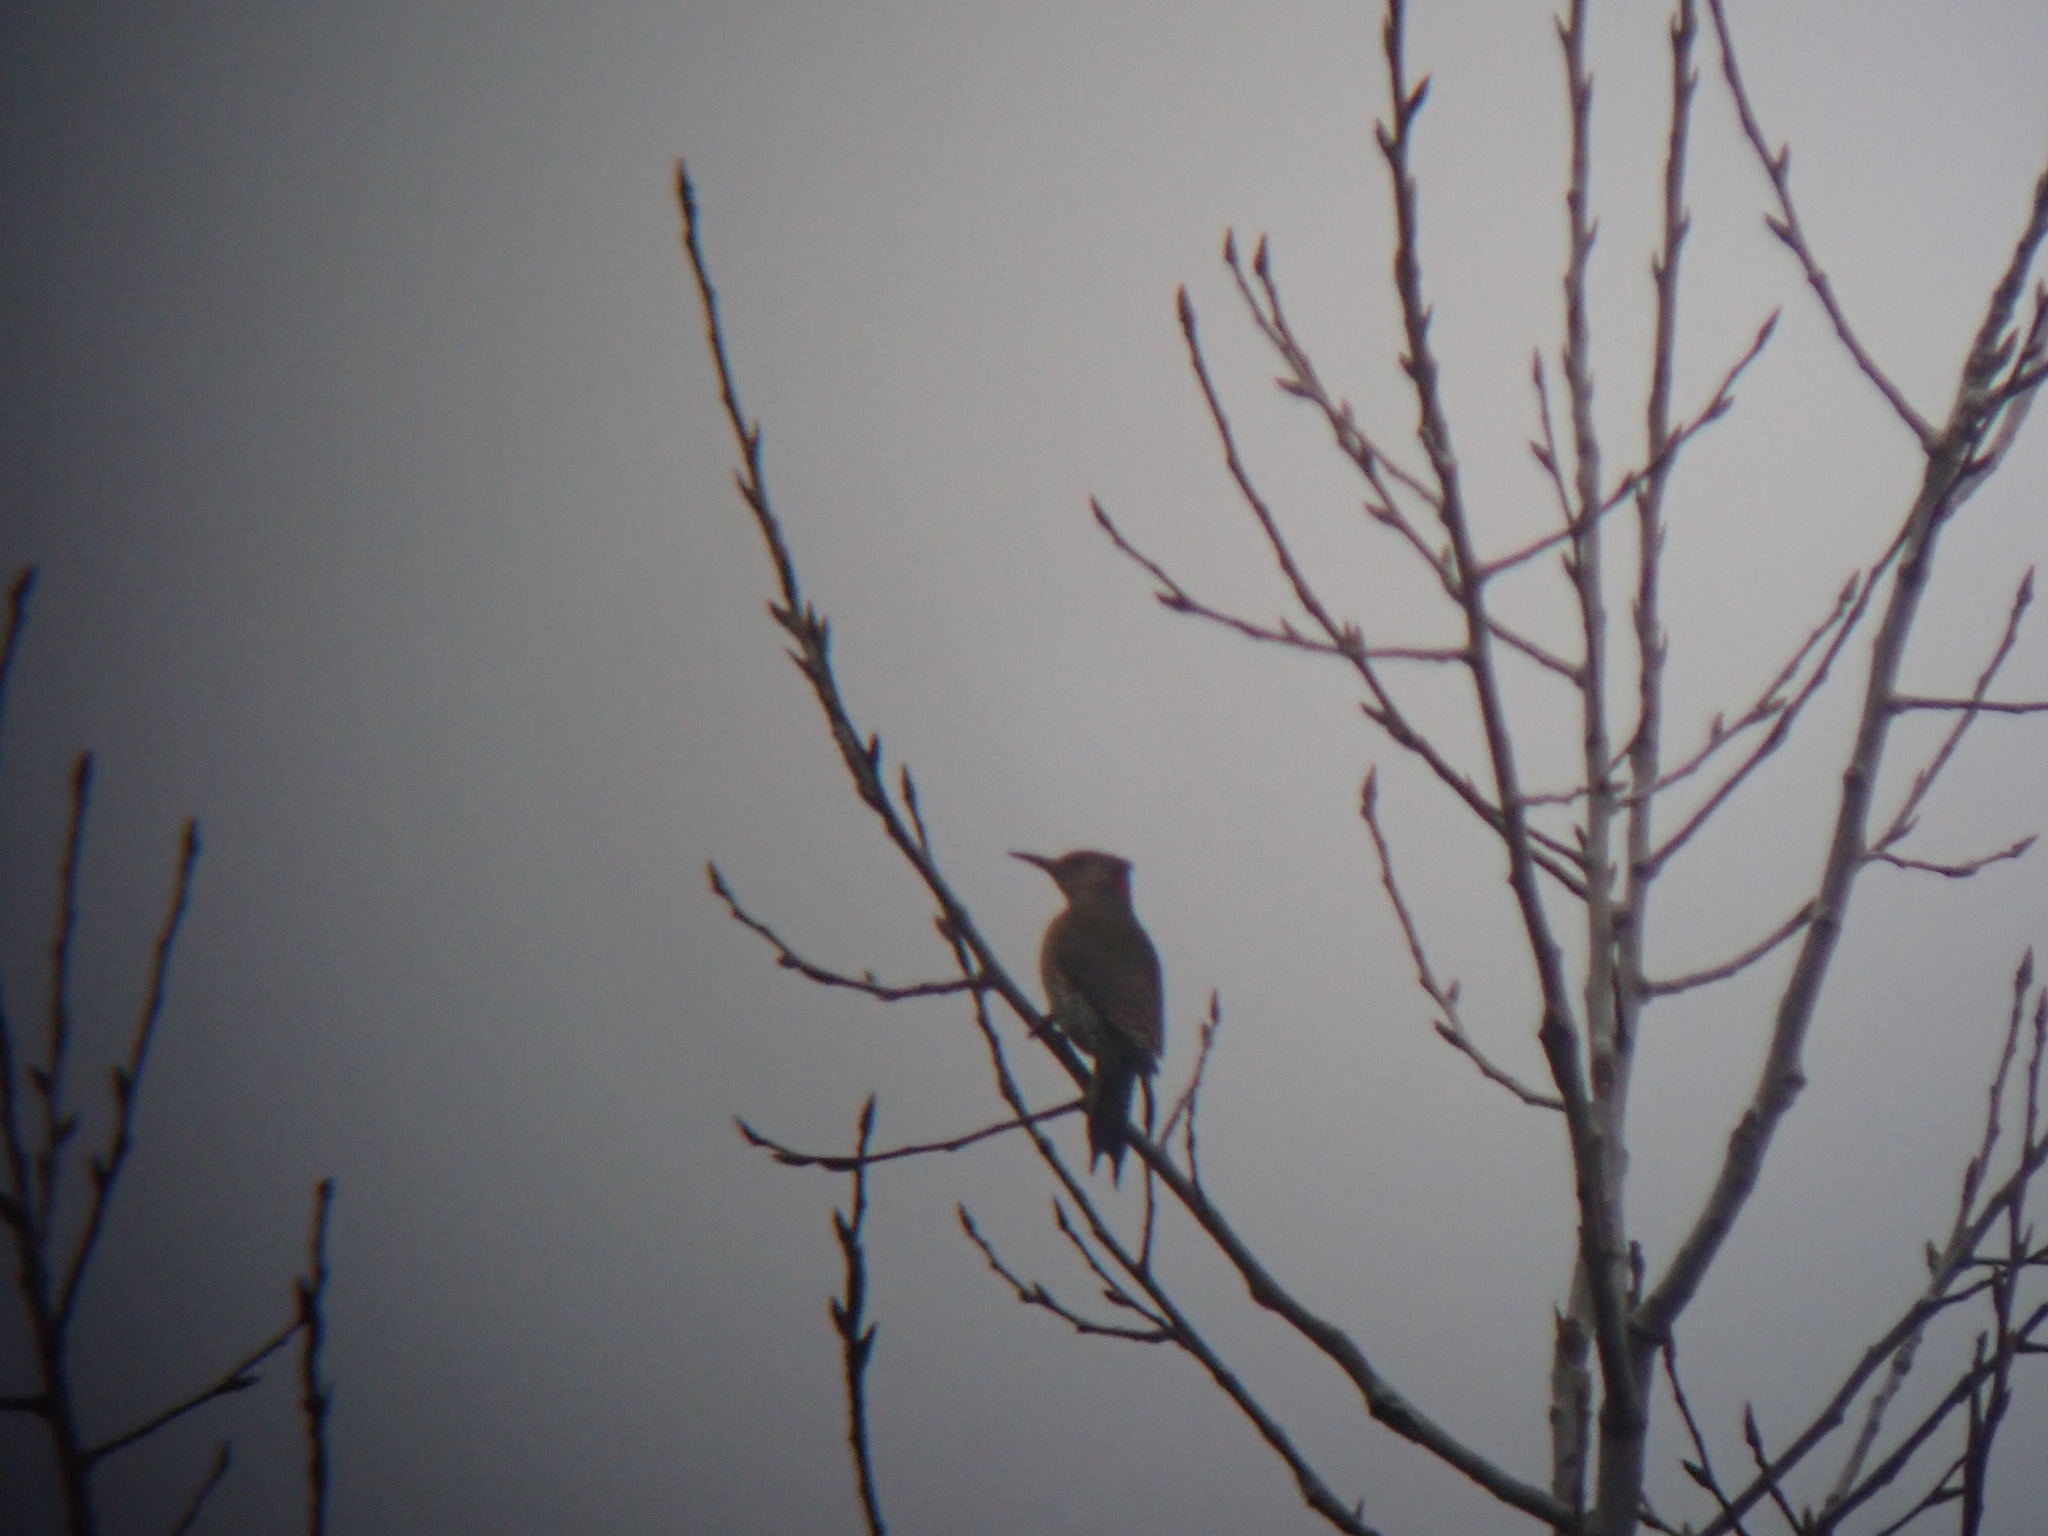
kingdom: Animalia
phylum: Chordata
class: Aves
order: Piciformes
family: Picidae
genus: Colaptes
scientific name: Colaptes auratus
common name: Northern flicker
